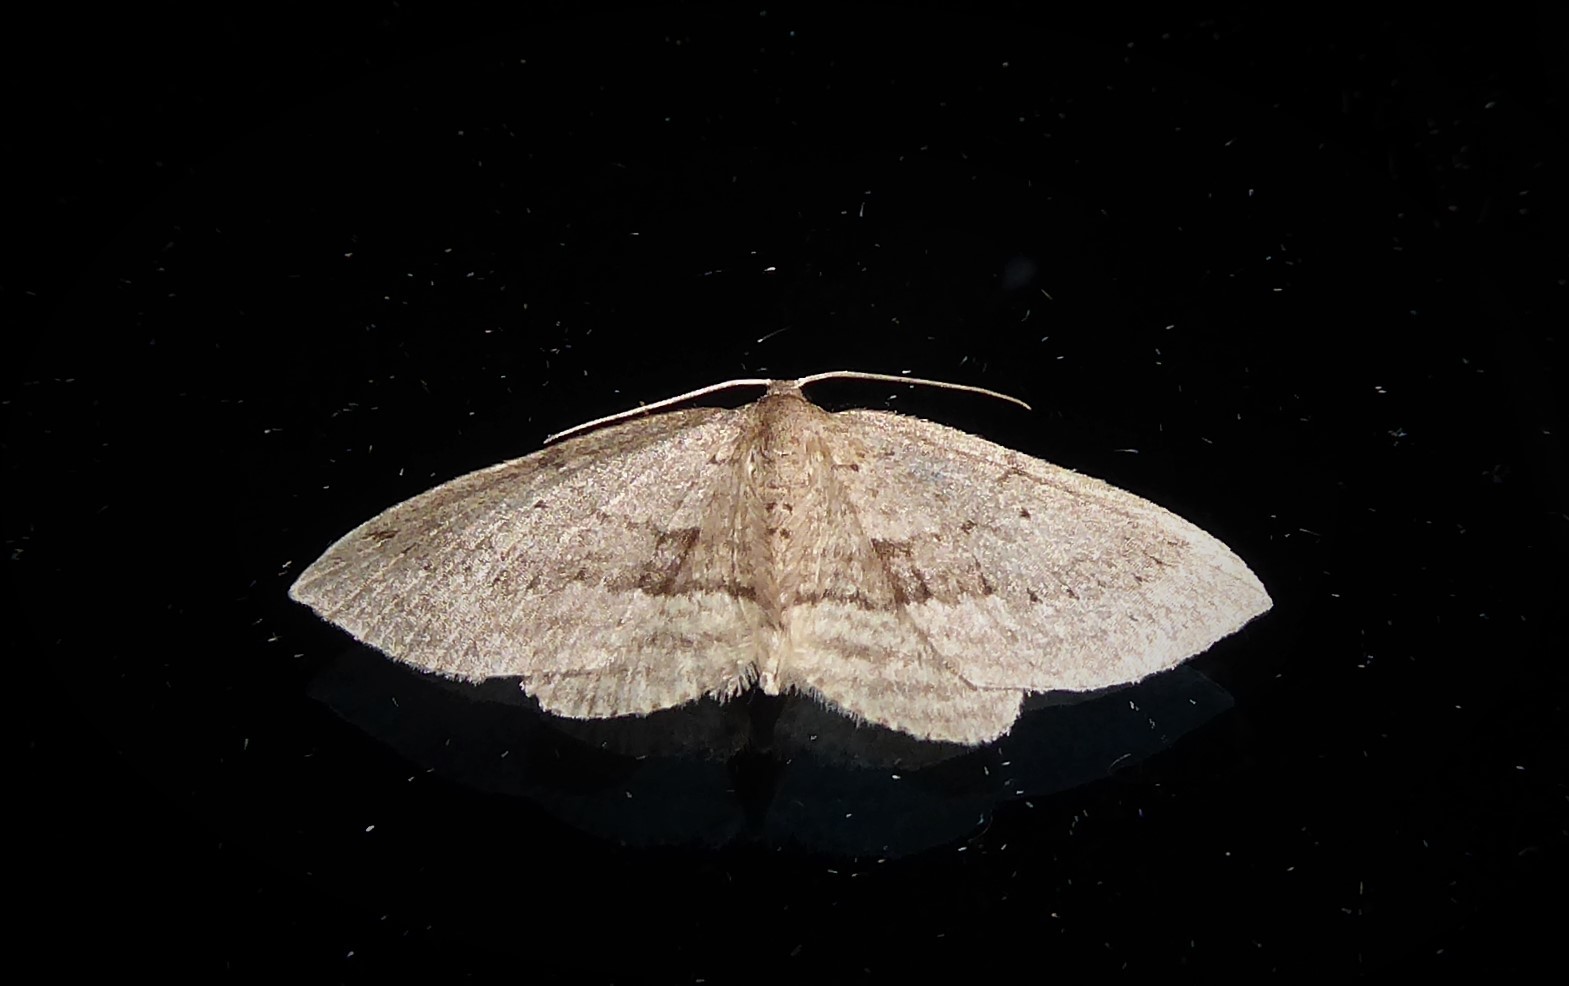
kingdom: Animalia
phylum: Arthropoda
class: Insecta
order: Lepidoptera
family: Geometridae
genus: Poecilasthena
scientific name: Poecilasthena schistaria
